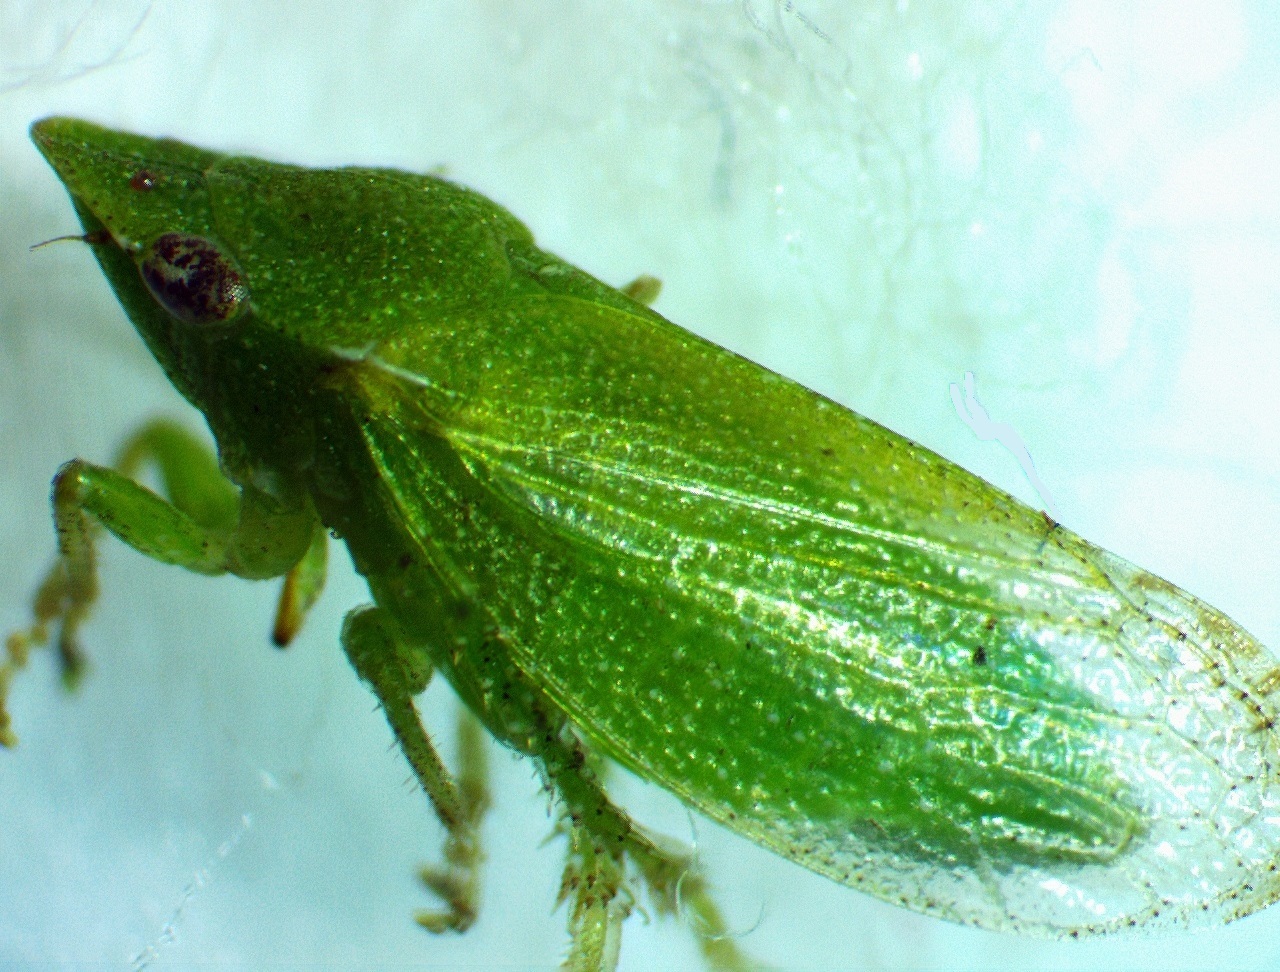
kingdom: Animalia
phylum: Arthropoda
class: Insecta
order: Hemiptera
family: Cicadellidae
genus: Xerophloea
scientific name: Xerophloea viridis
